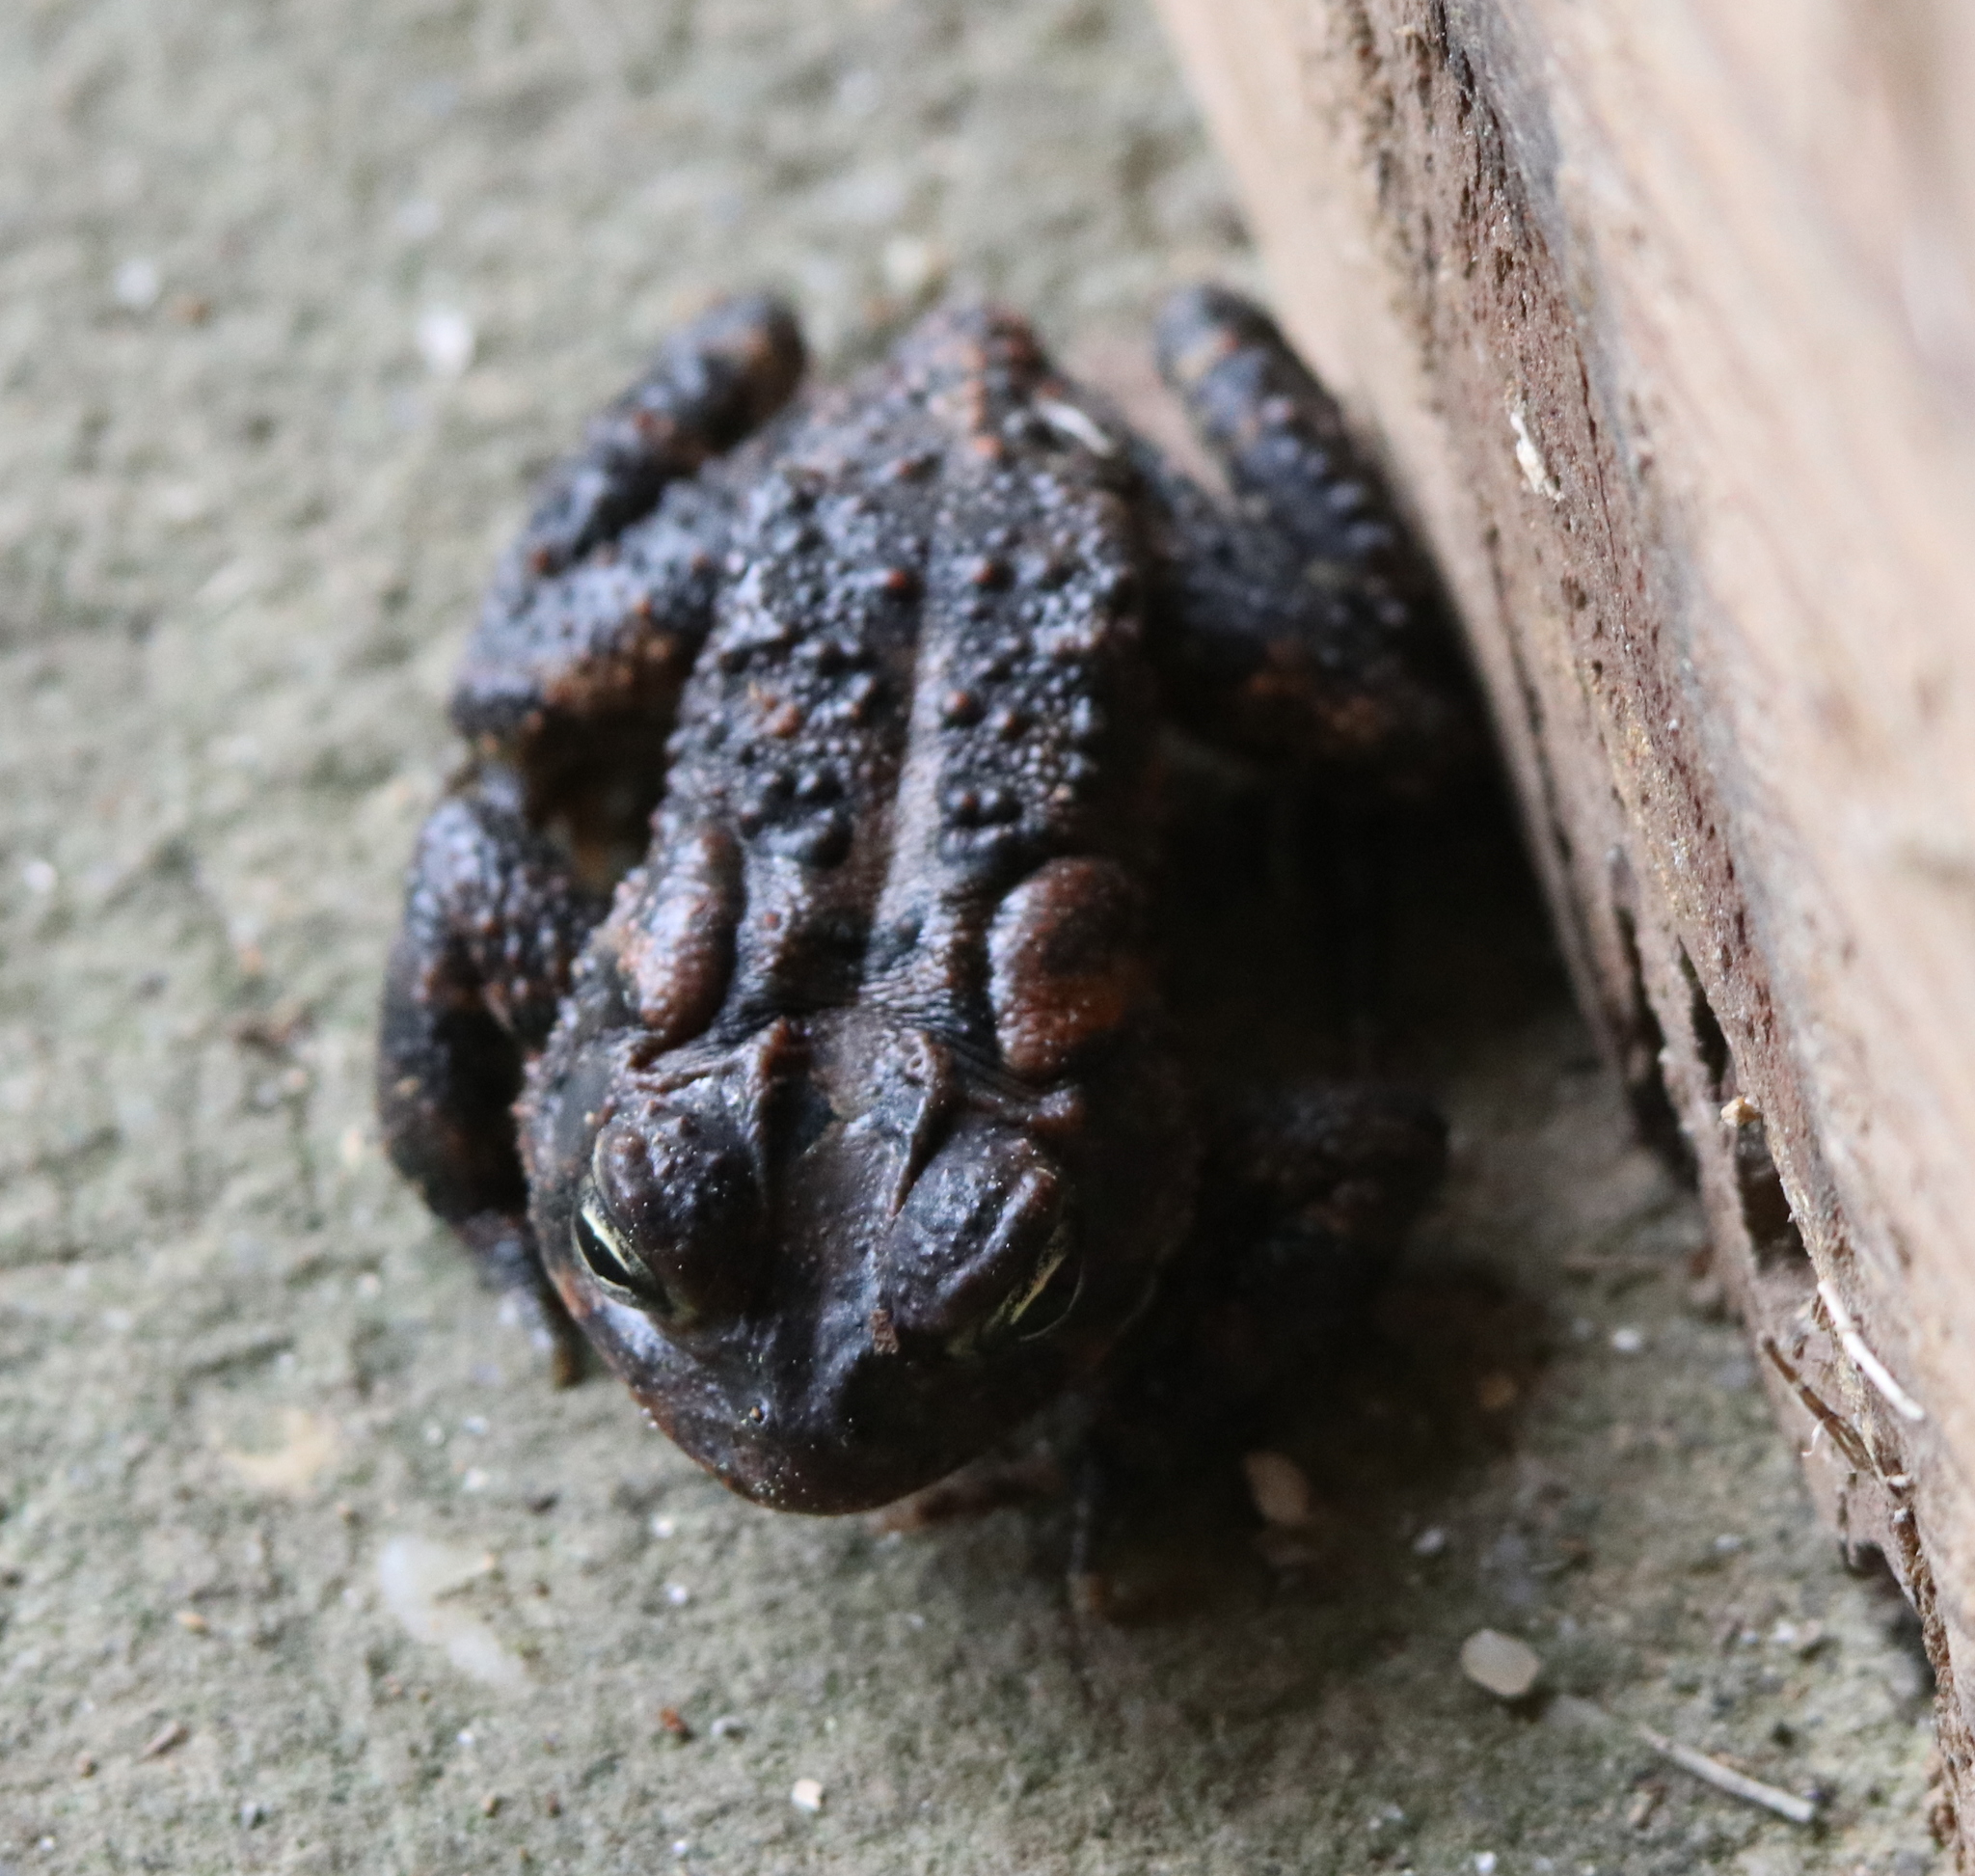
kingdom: Animalia
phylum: Chordata
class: Amphibia
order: Anura
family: Bufonidae
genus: Anaxyrus
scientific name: Anaxyrus terrestris
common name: Southern toad
